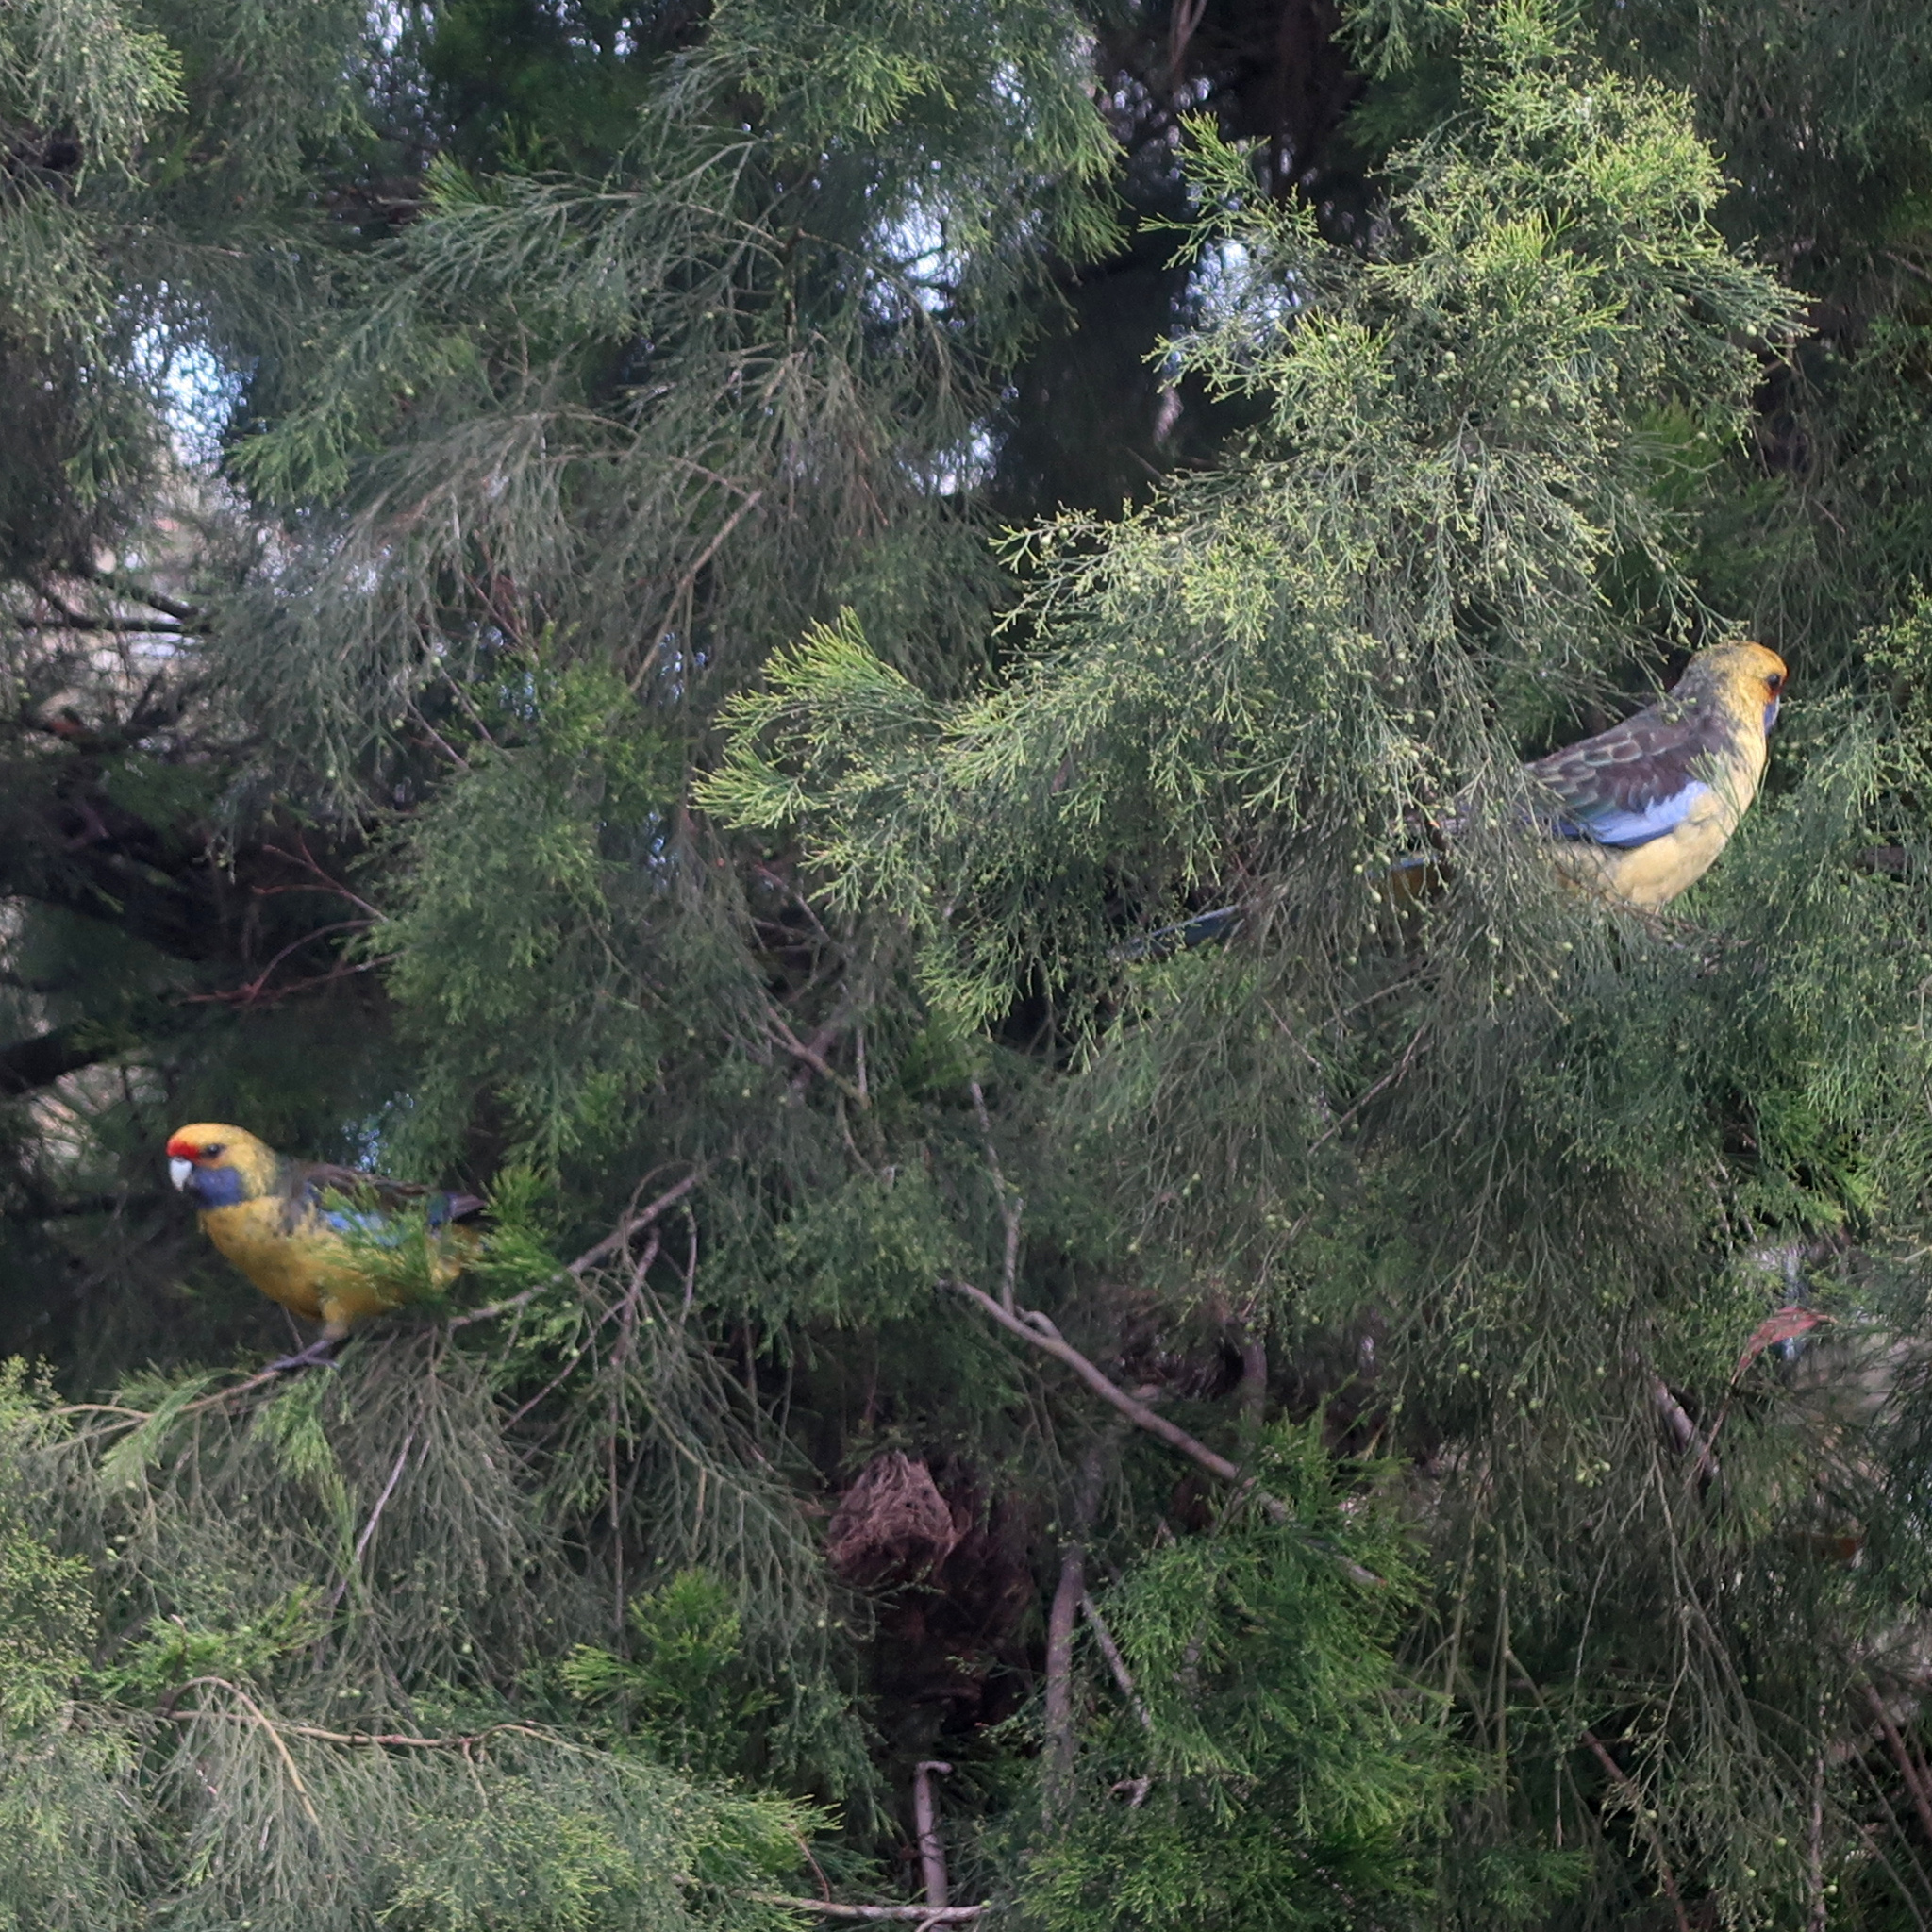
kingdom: Animalia
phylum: Chordata
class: Aves
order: Psittaciformes
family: Psittacidae
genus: Platycercus
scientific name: Platycercus caledonicus
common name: Green rosella
